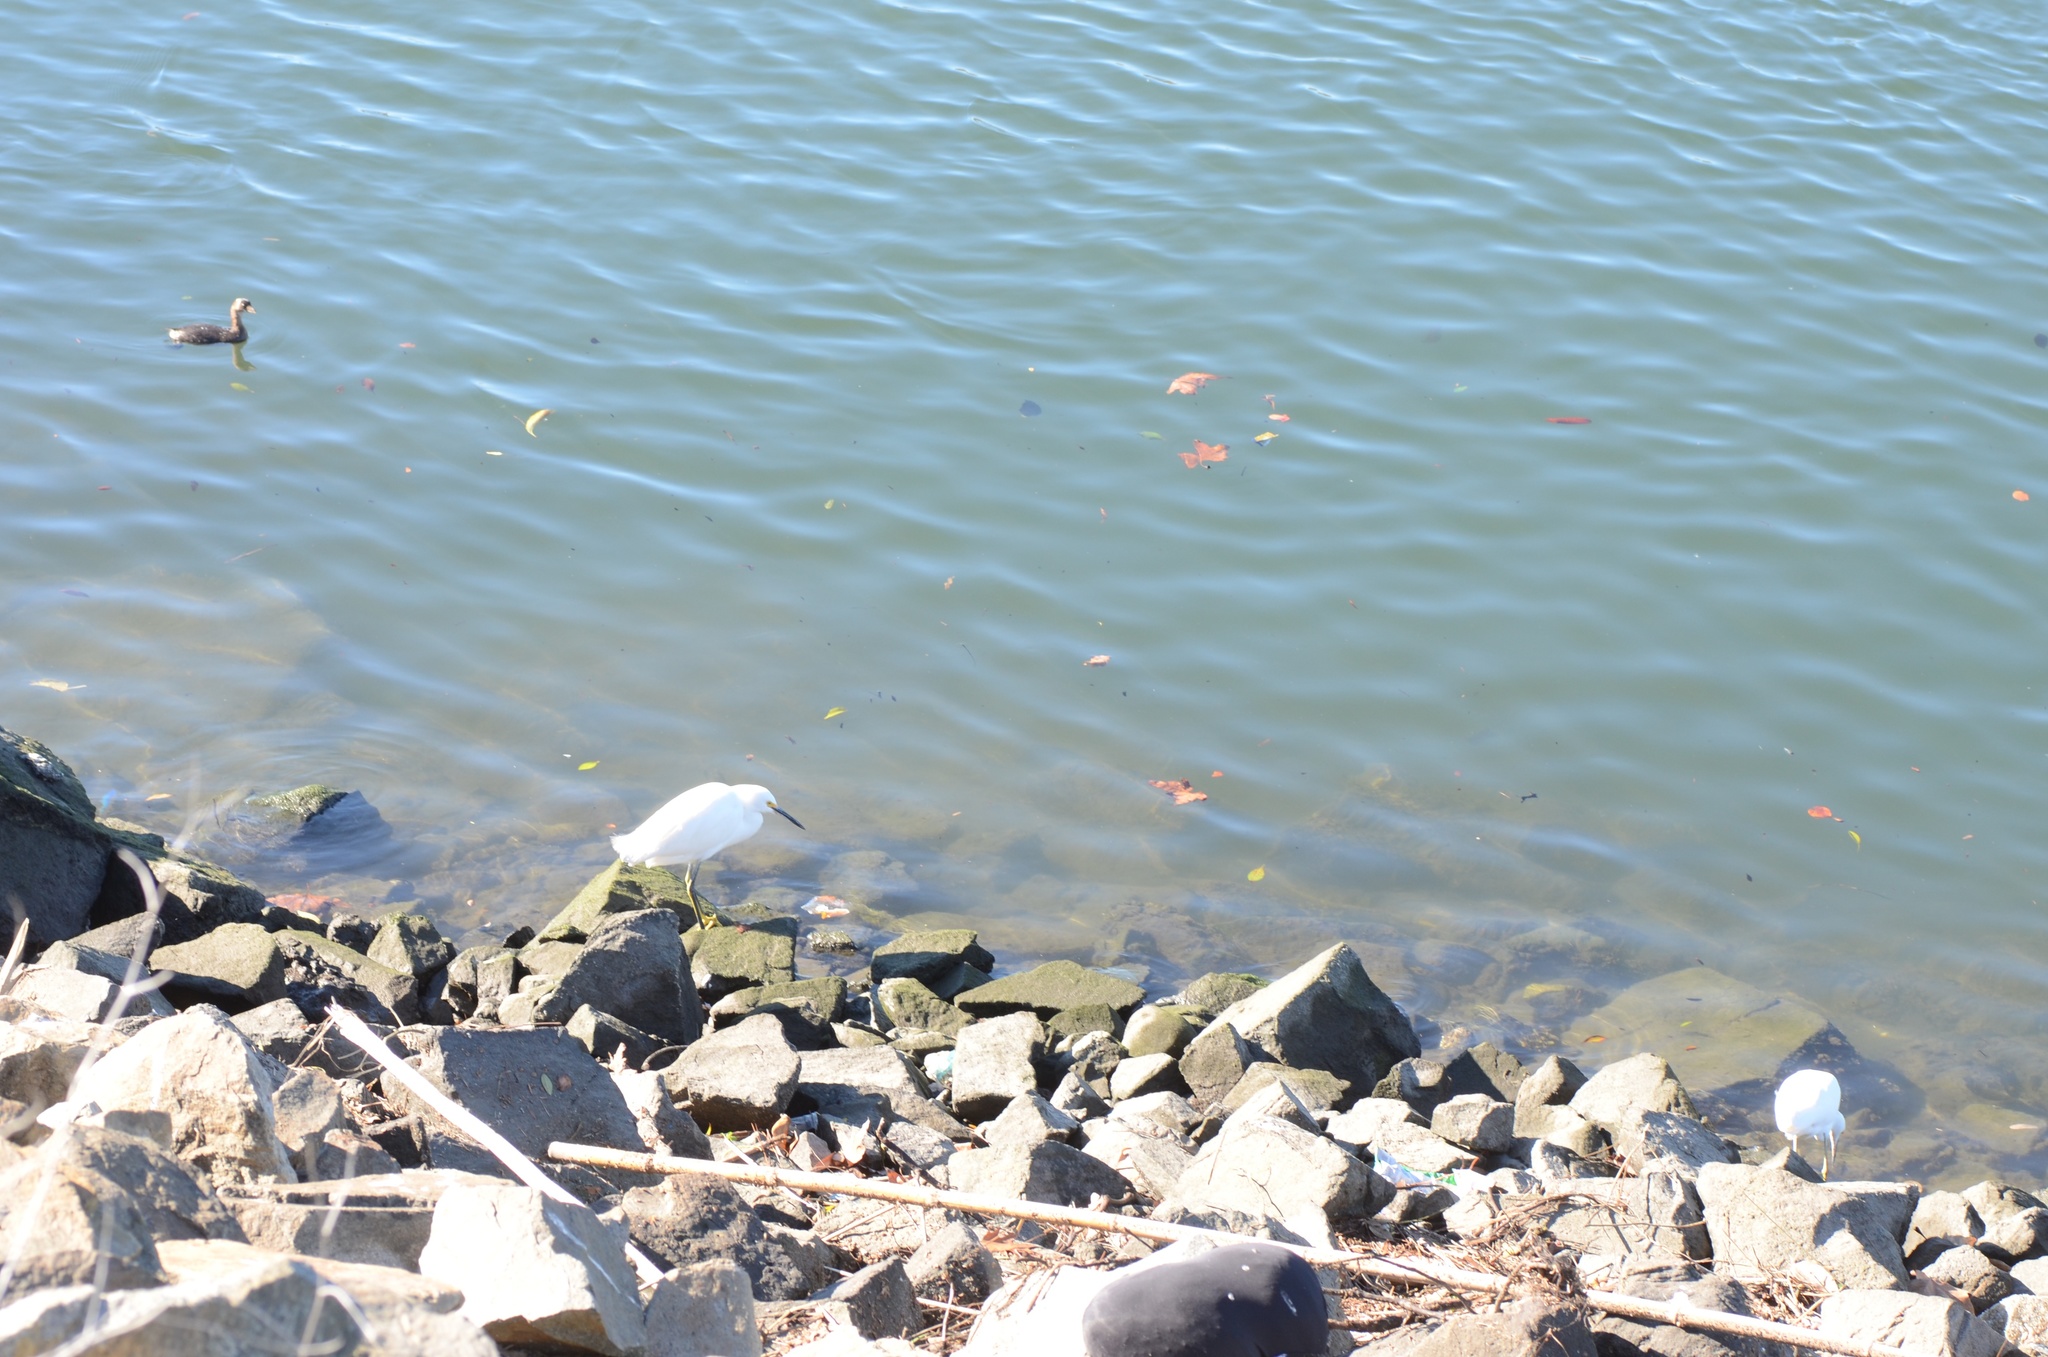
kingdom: Animalia
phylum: Chordata
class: Aves
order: Pelecaniformes
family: Ardeidae
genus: Egretta
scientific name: Egretta thula
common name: Snowy egret
